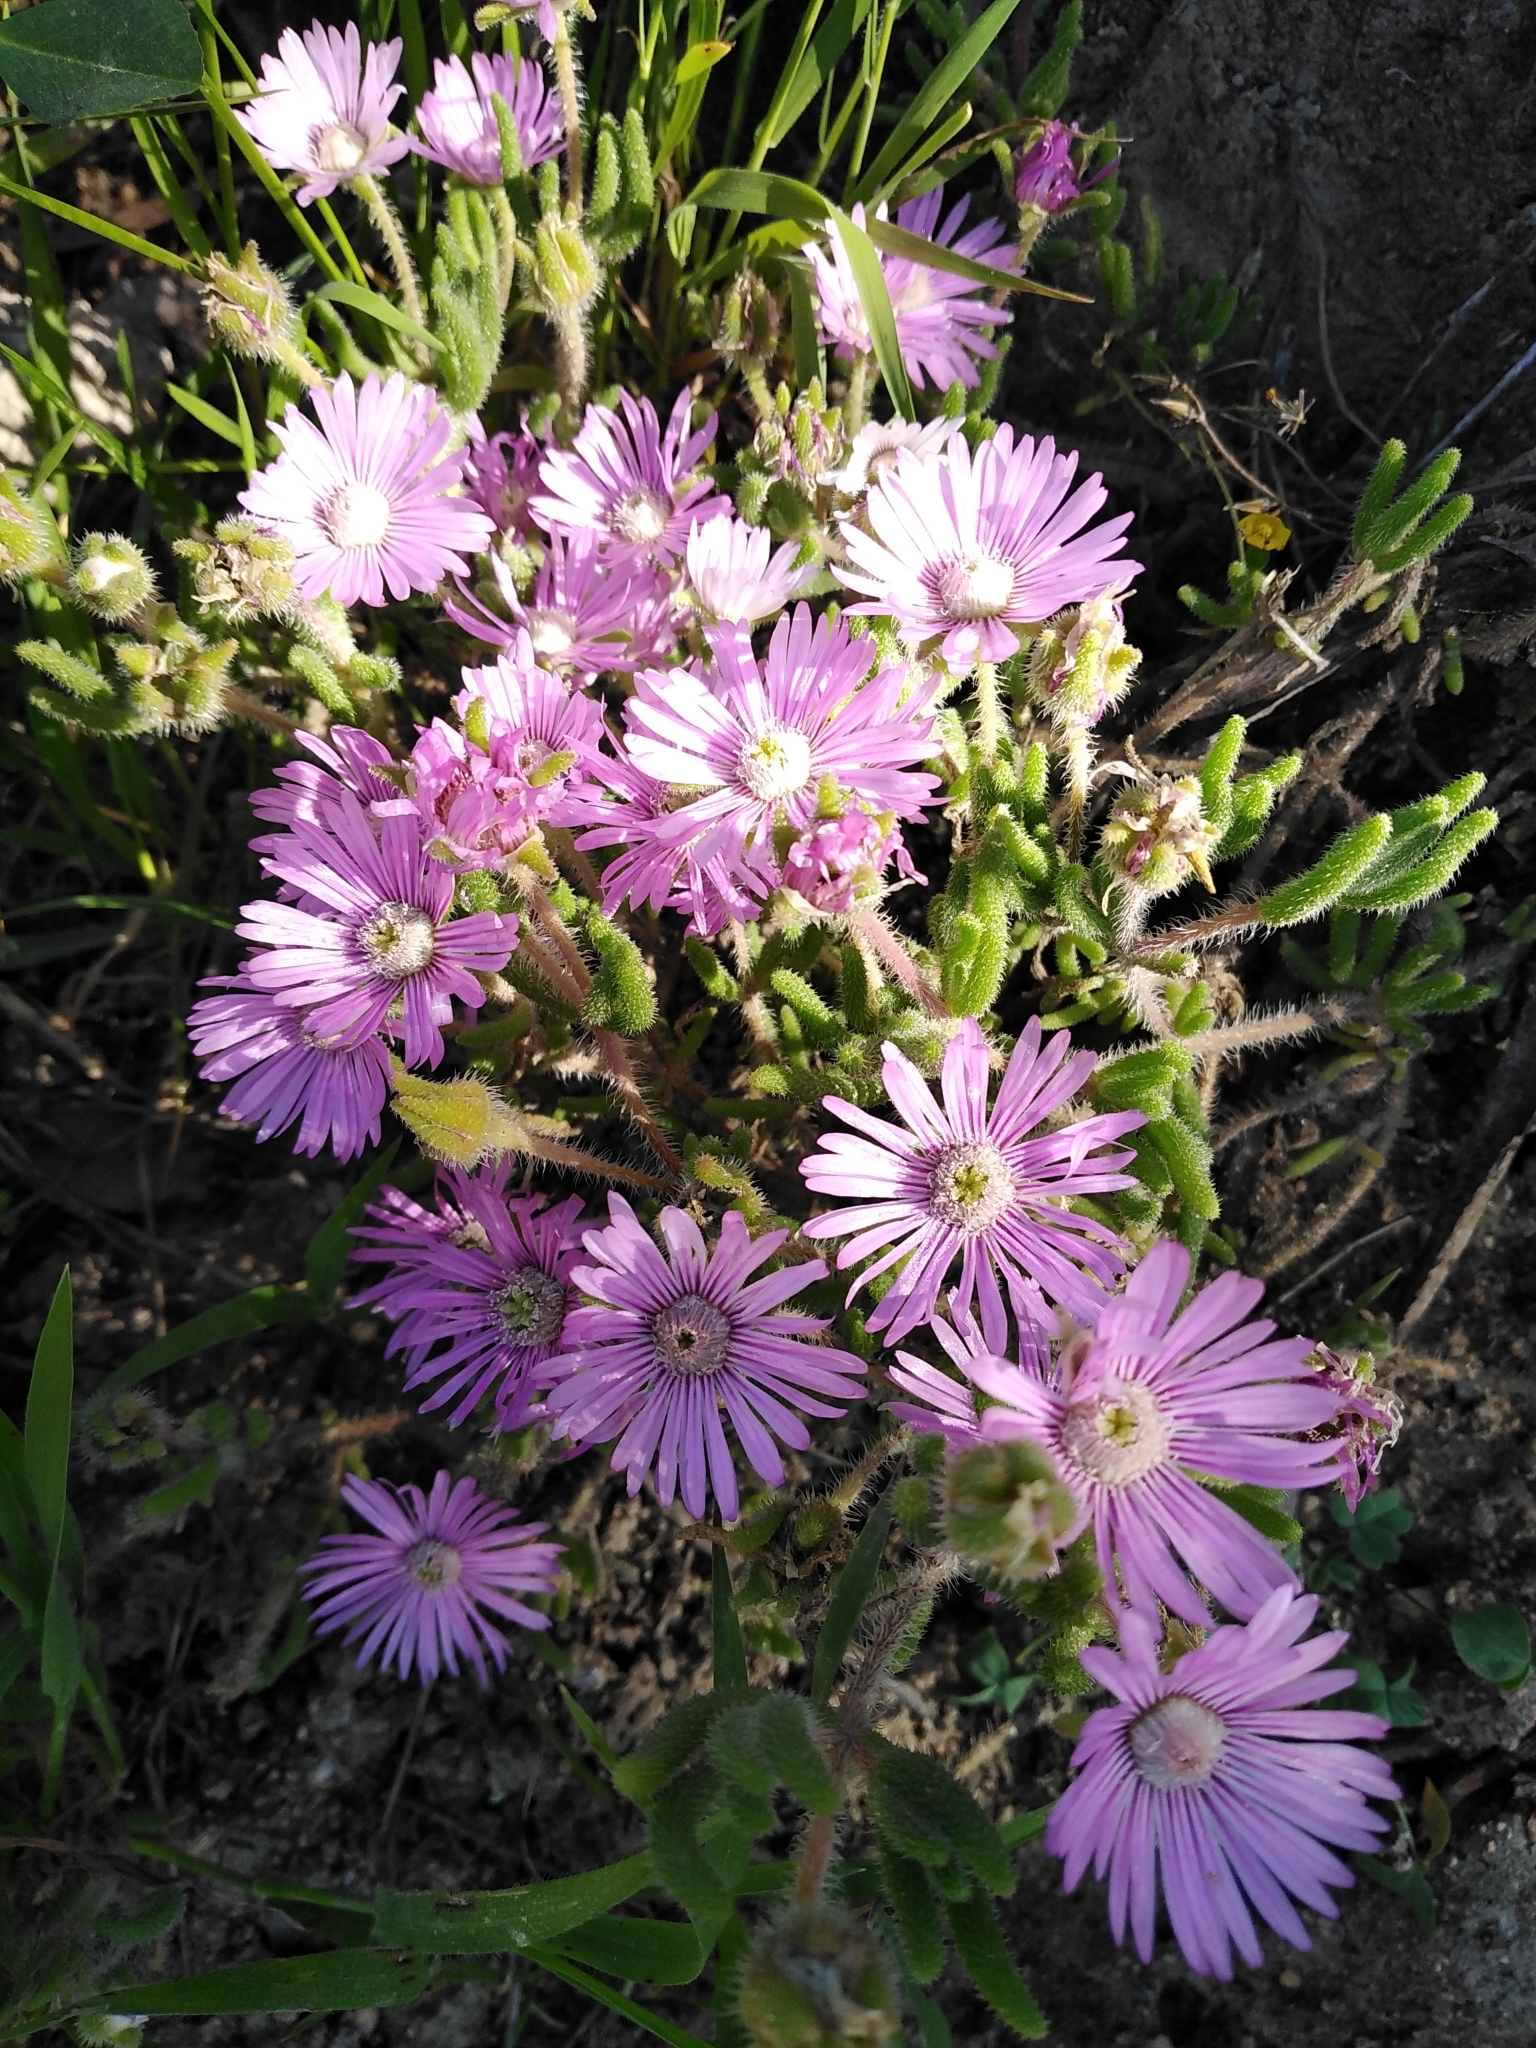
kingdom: Plantae
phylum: Tracheophyta
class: Magnoliopsida
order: Caryophyllales
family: Aizoaceae
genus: Drosanthemum
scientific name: Drosanthemum hispifolium
